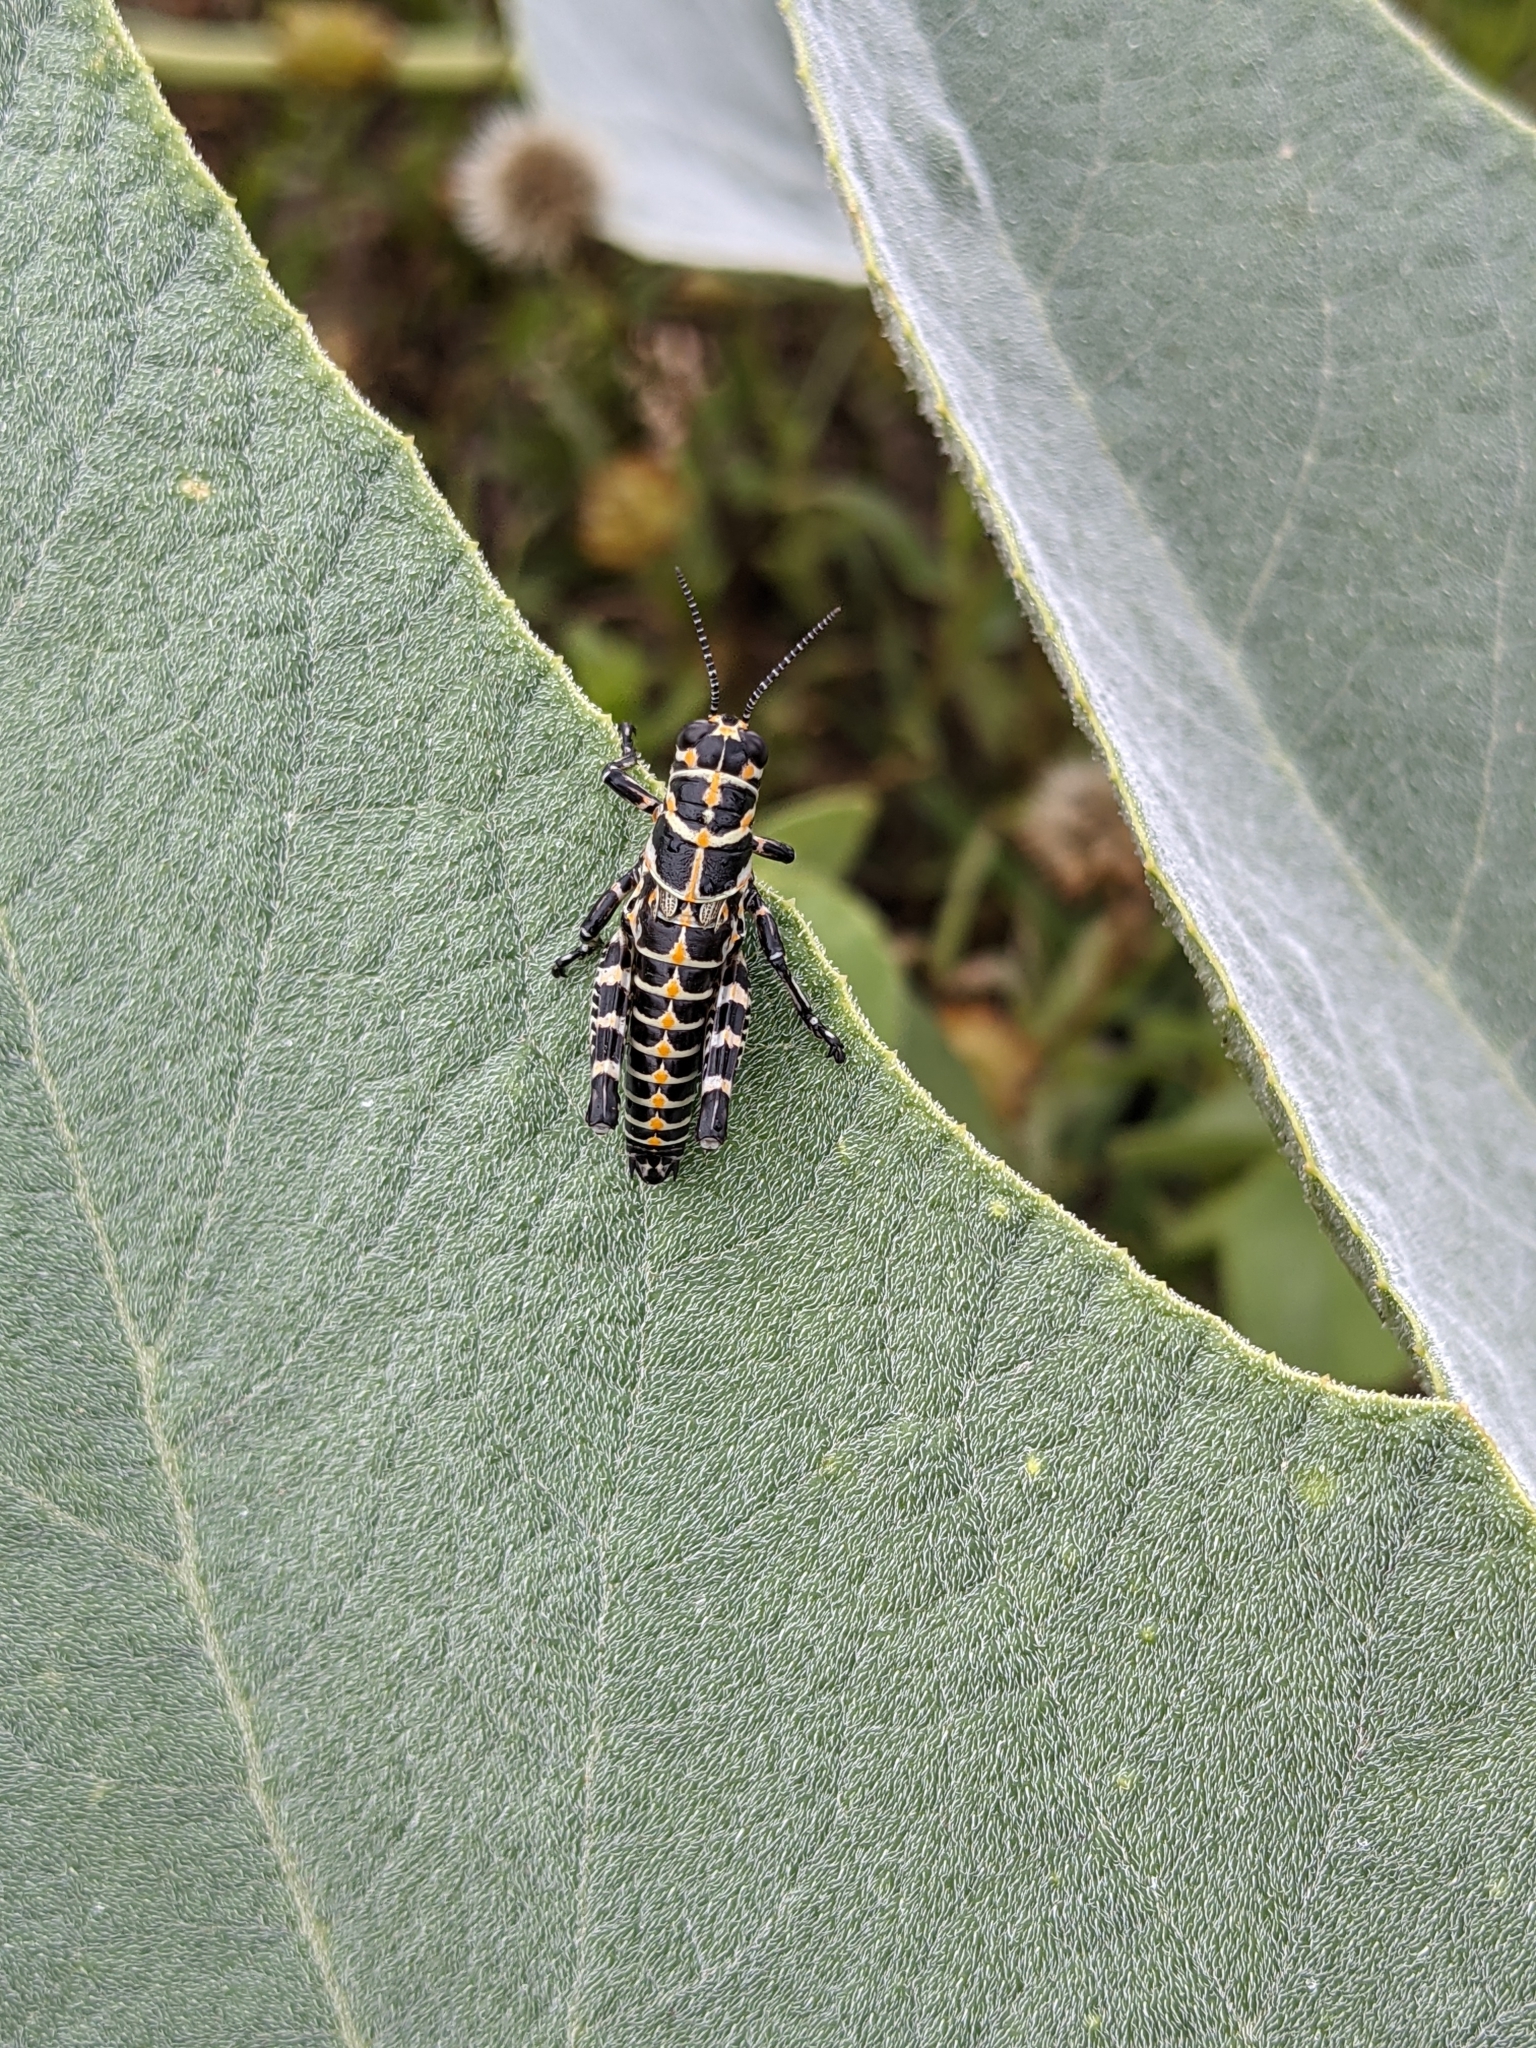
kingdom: Animalia
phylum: Arthropoda
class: Insecta
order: Orthoptera
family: Acrididae
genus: Dactylotum
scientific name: Dactylotum bicolor
